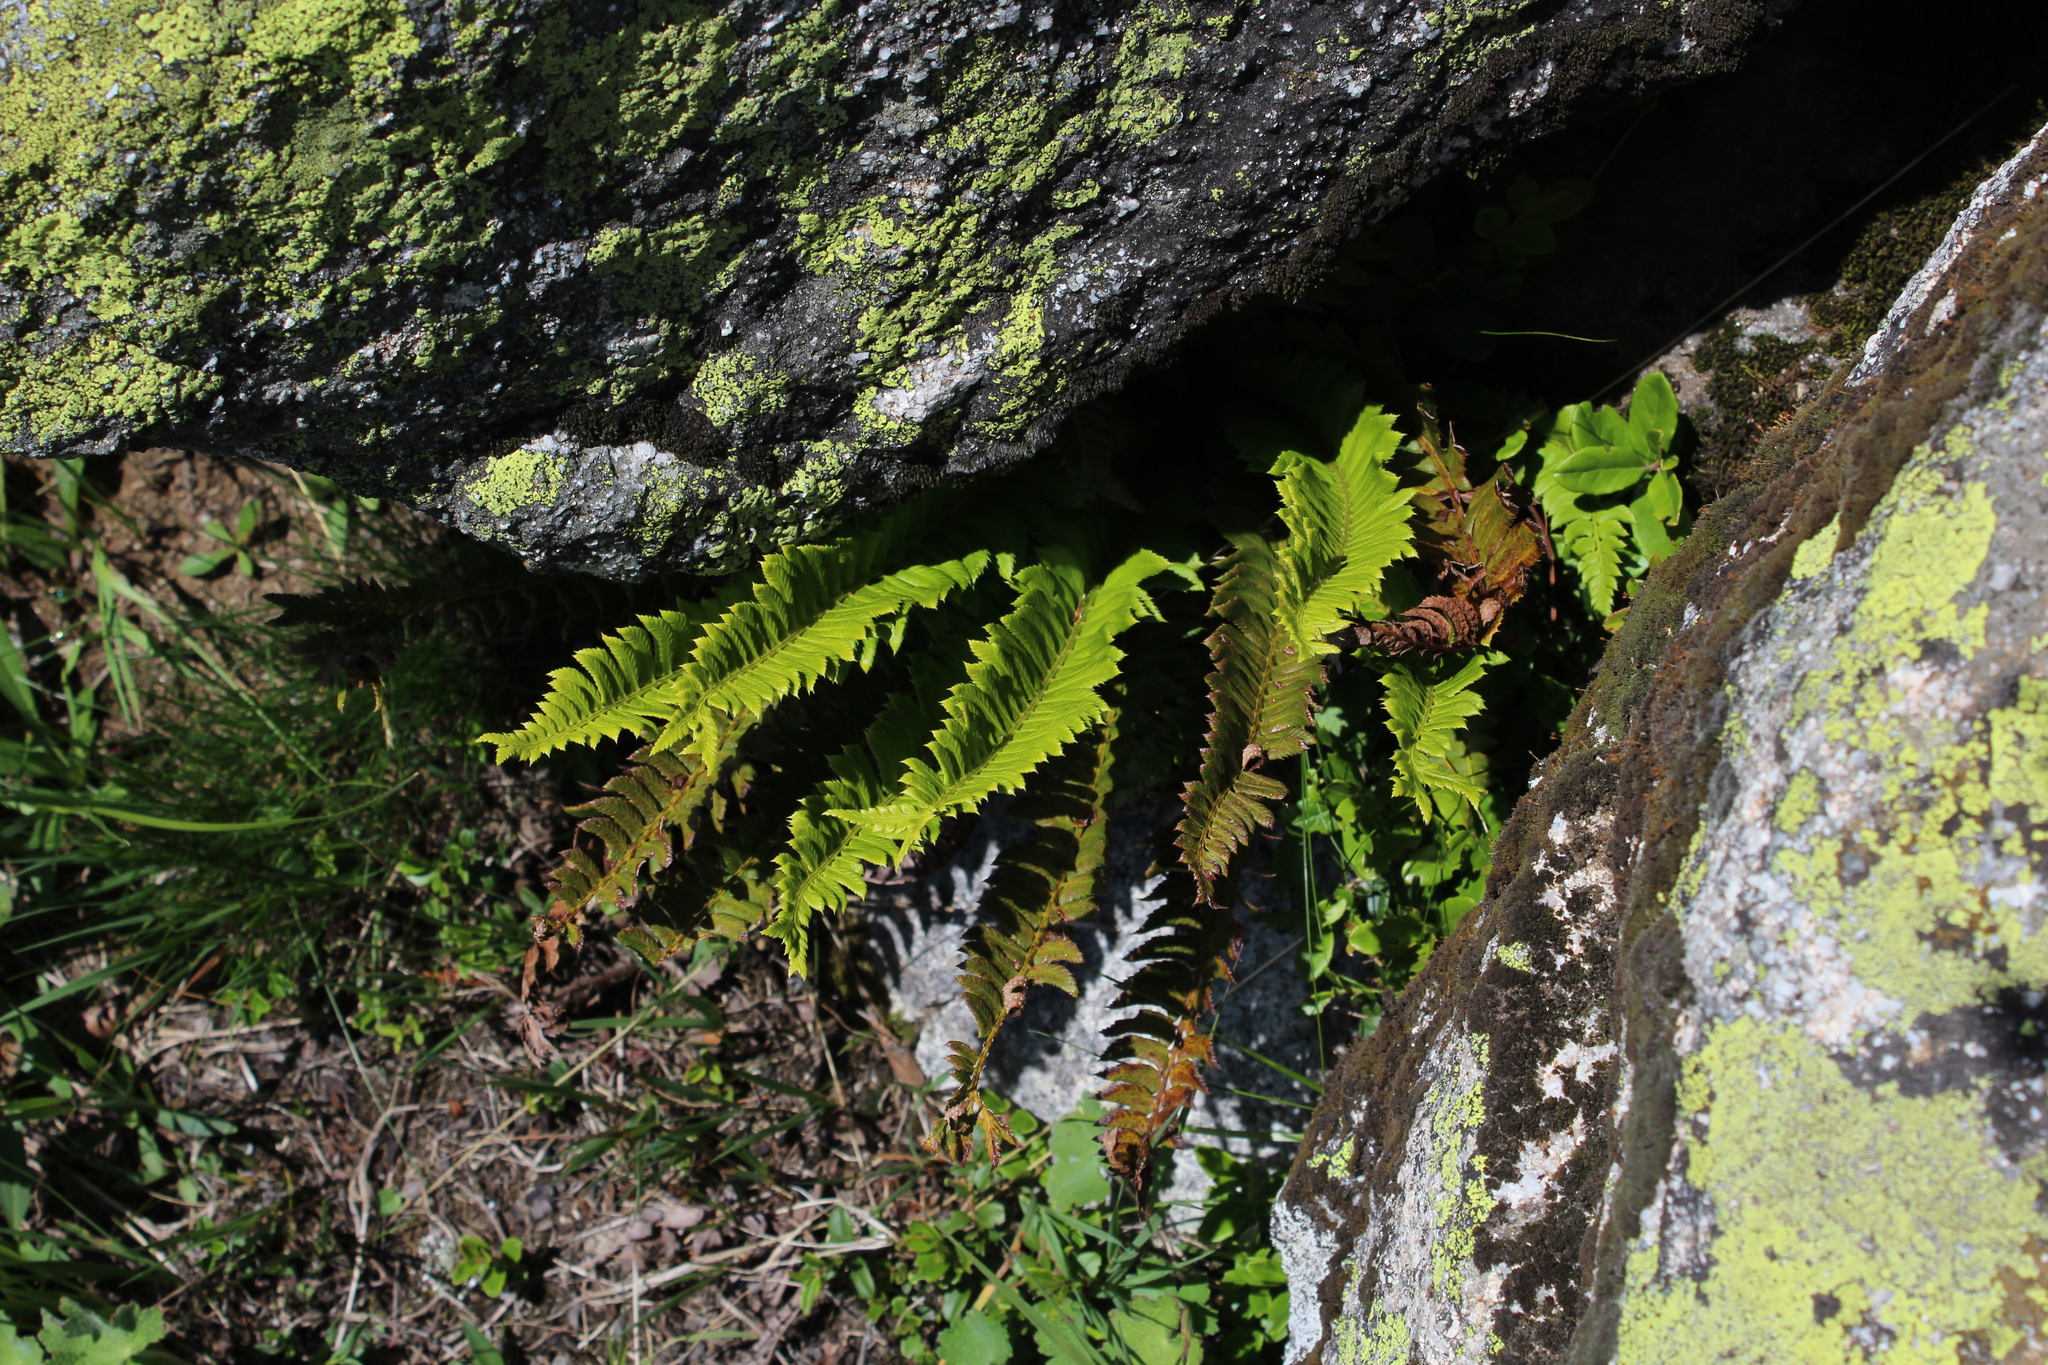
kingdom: Plantae
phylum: Tracheophyta
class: Polypodiopsida
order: Polypodiales
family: Dryopteridaceae
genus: Polystichum
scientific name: Polystichum lonchitis
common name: Holly fern
